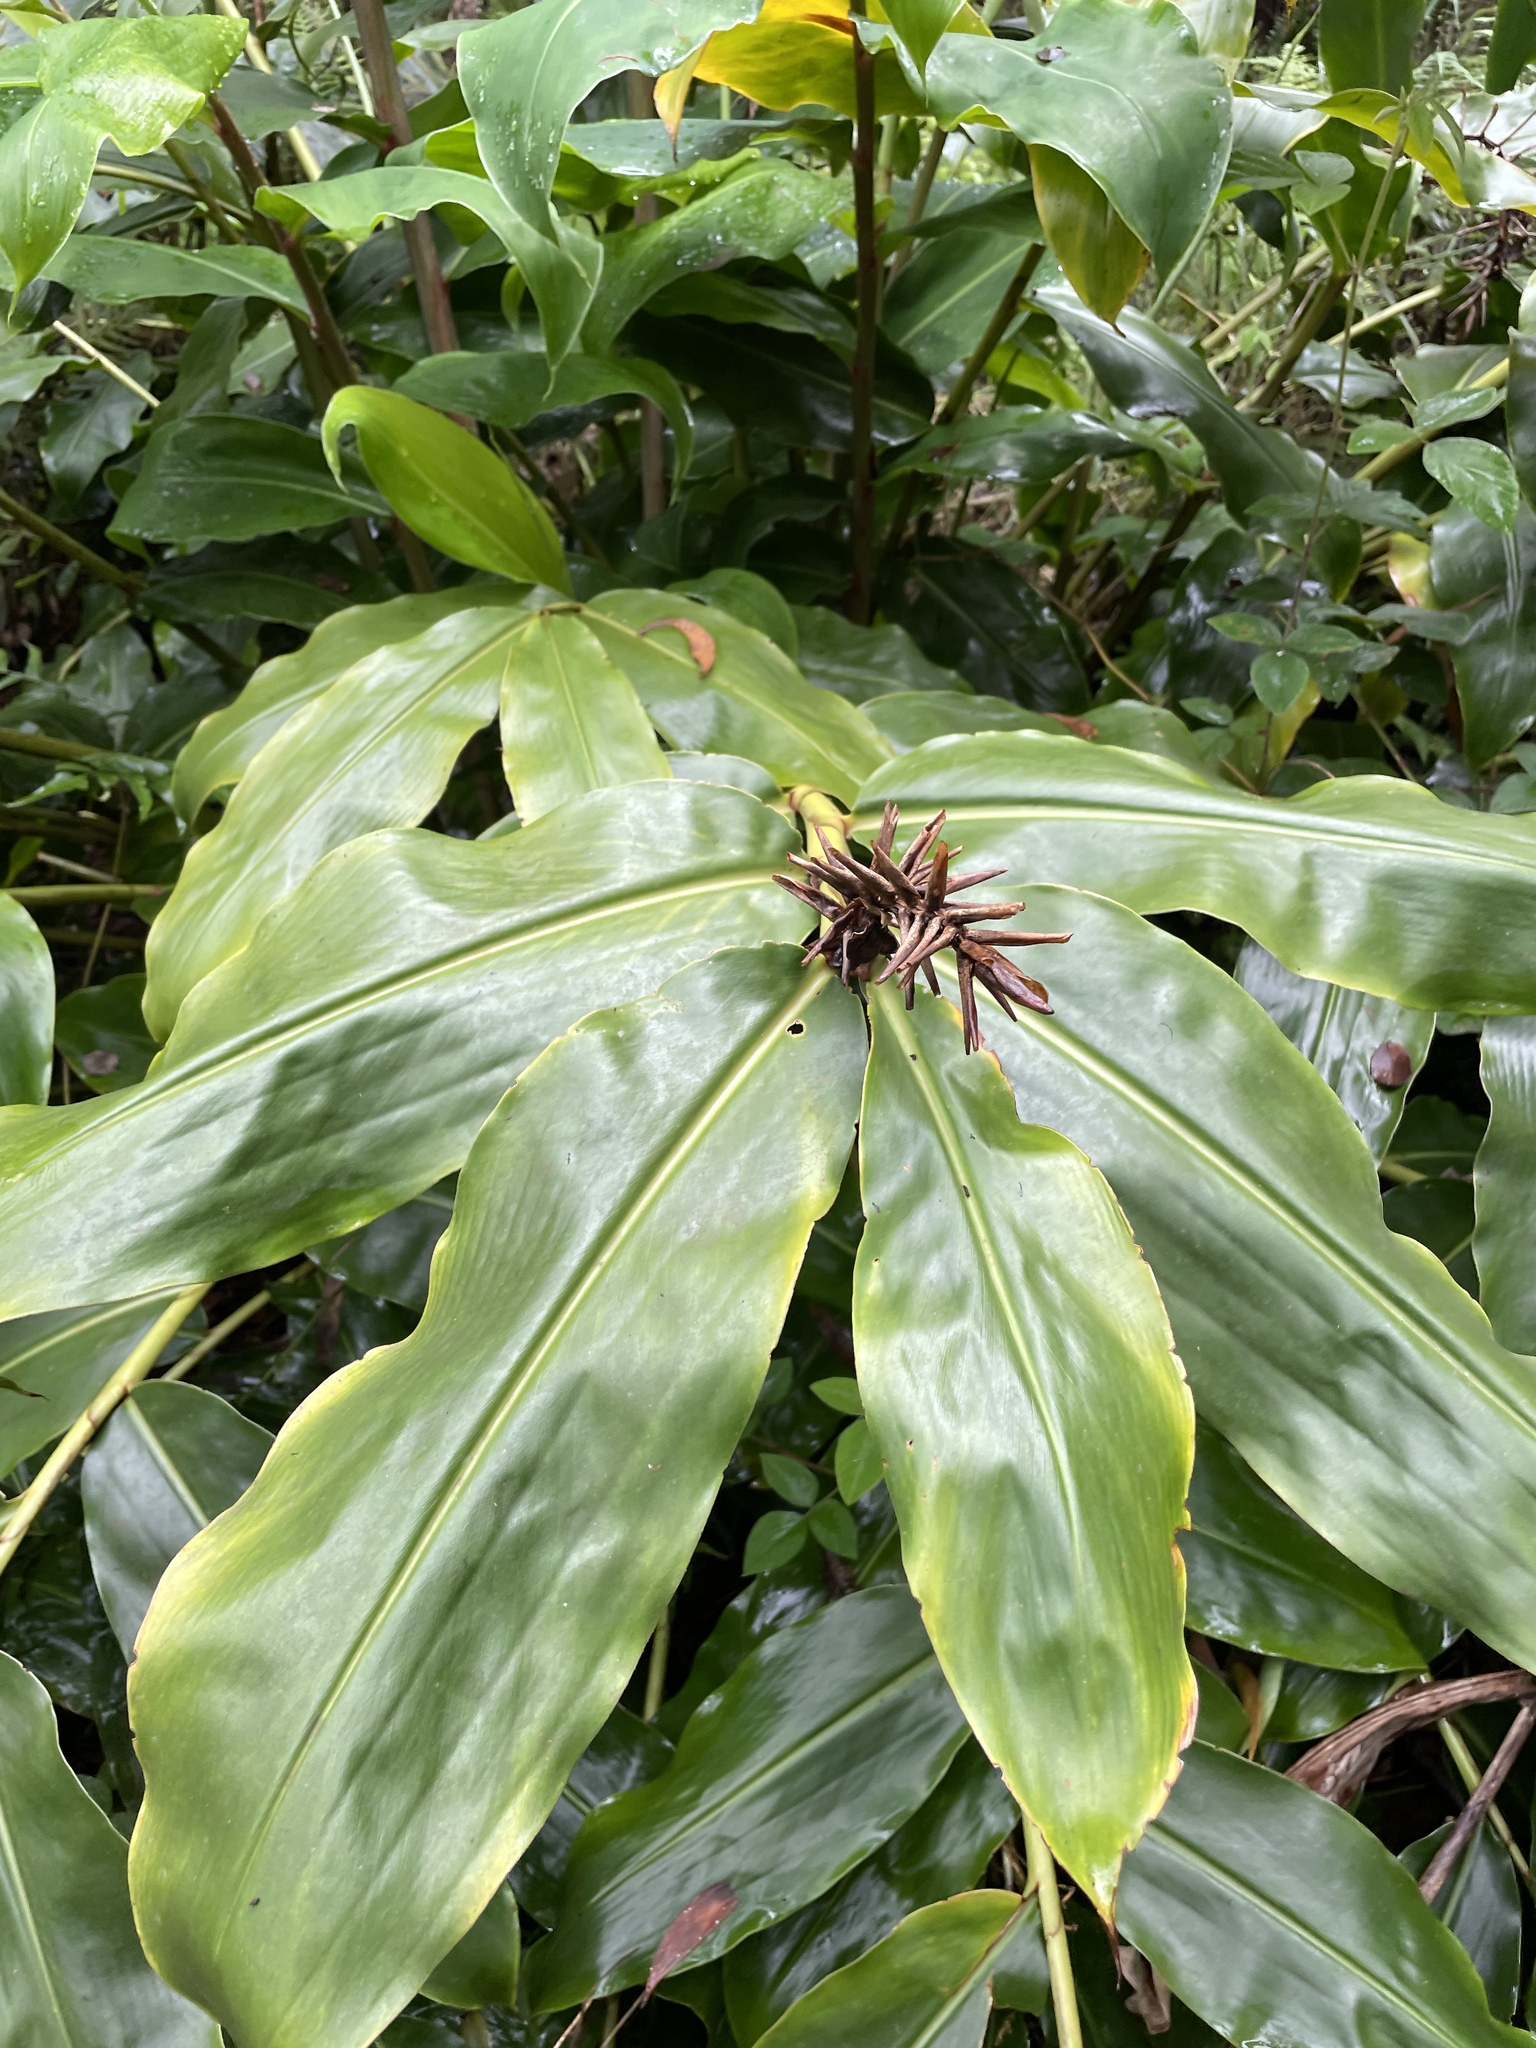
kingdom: Plantae
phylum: Tracheophyta
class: Liliopsida
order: Zingiberales
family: Zingiberaceae
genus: Hedychium
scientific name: Hedychium gardnerianum
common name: Himalayan ginger
